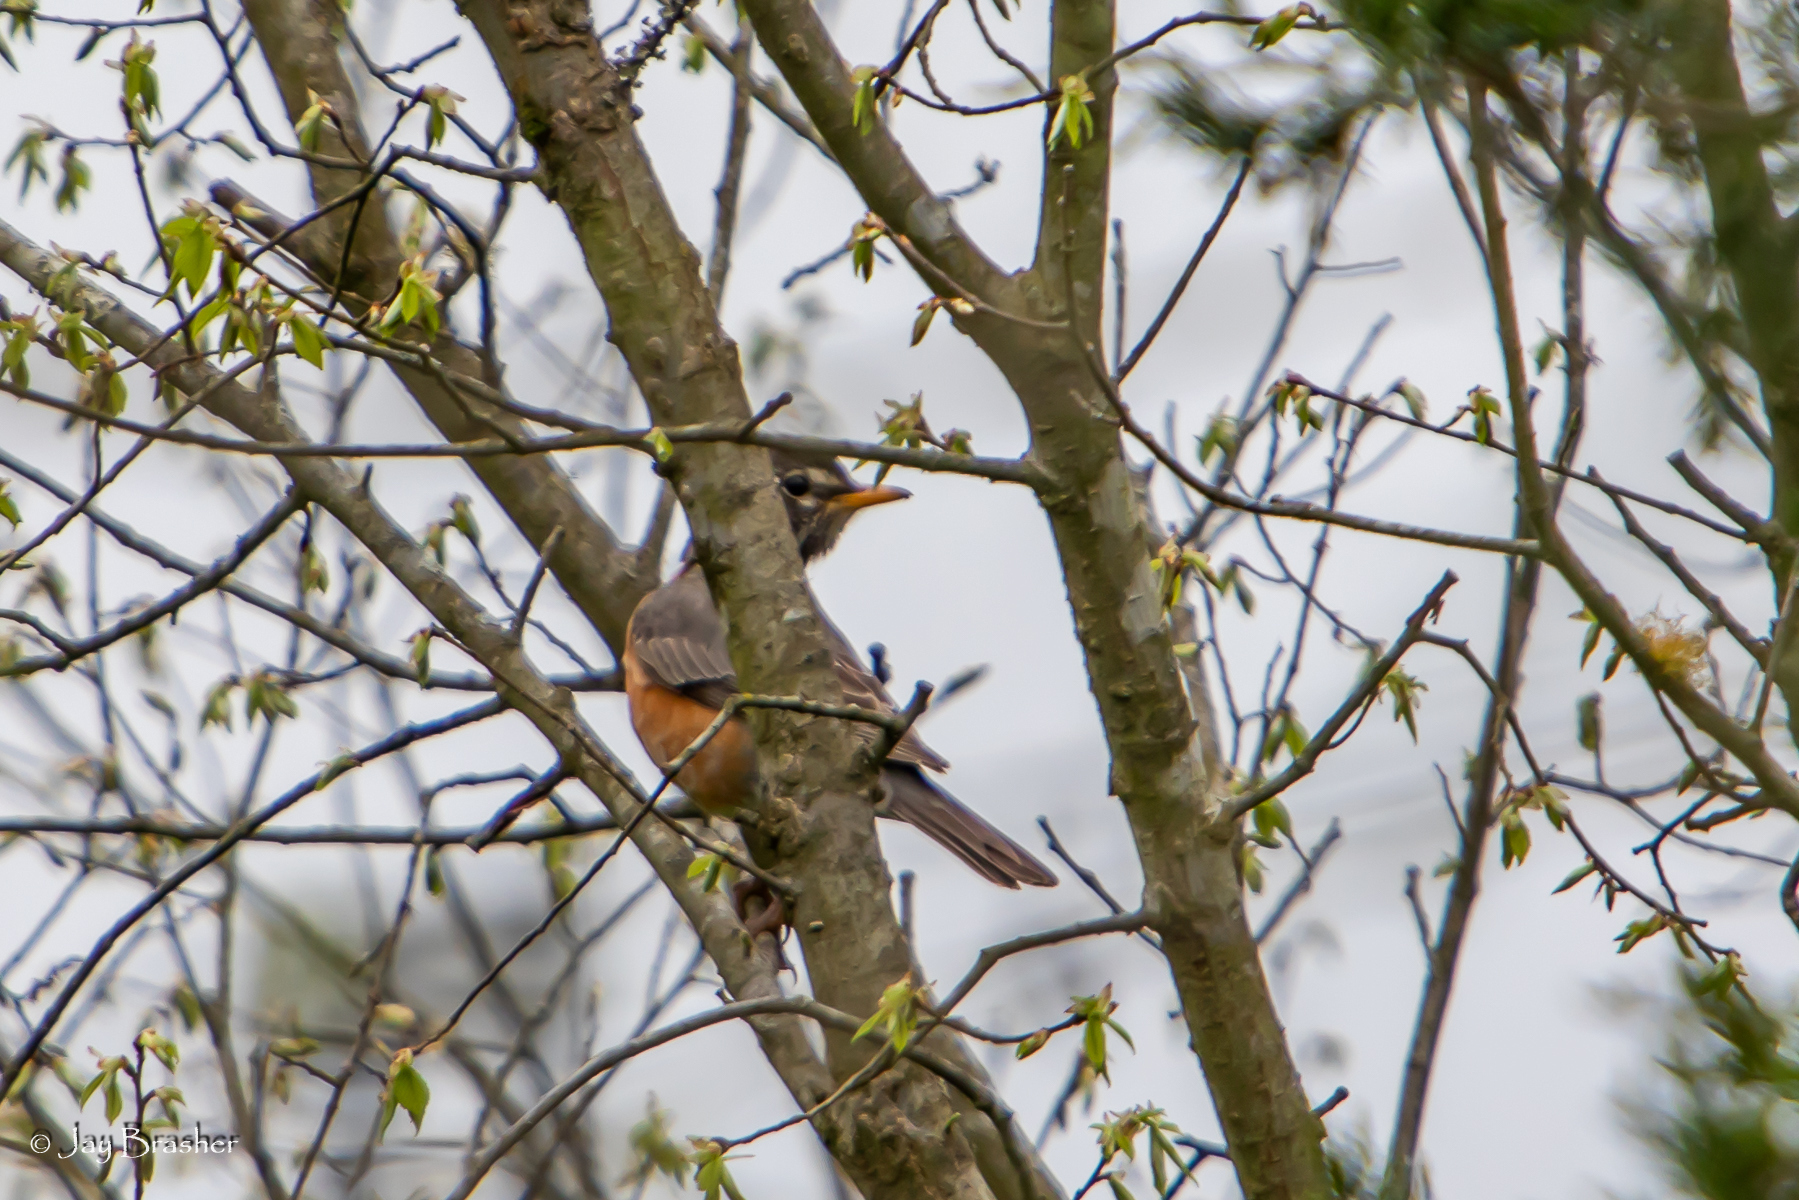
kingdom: Animalia
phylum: Chordata
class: Aves
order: Passeriformes
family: Turdidae
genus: Turdus
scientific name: Turdus migratorius
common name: American robin
